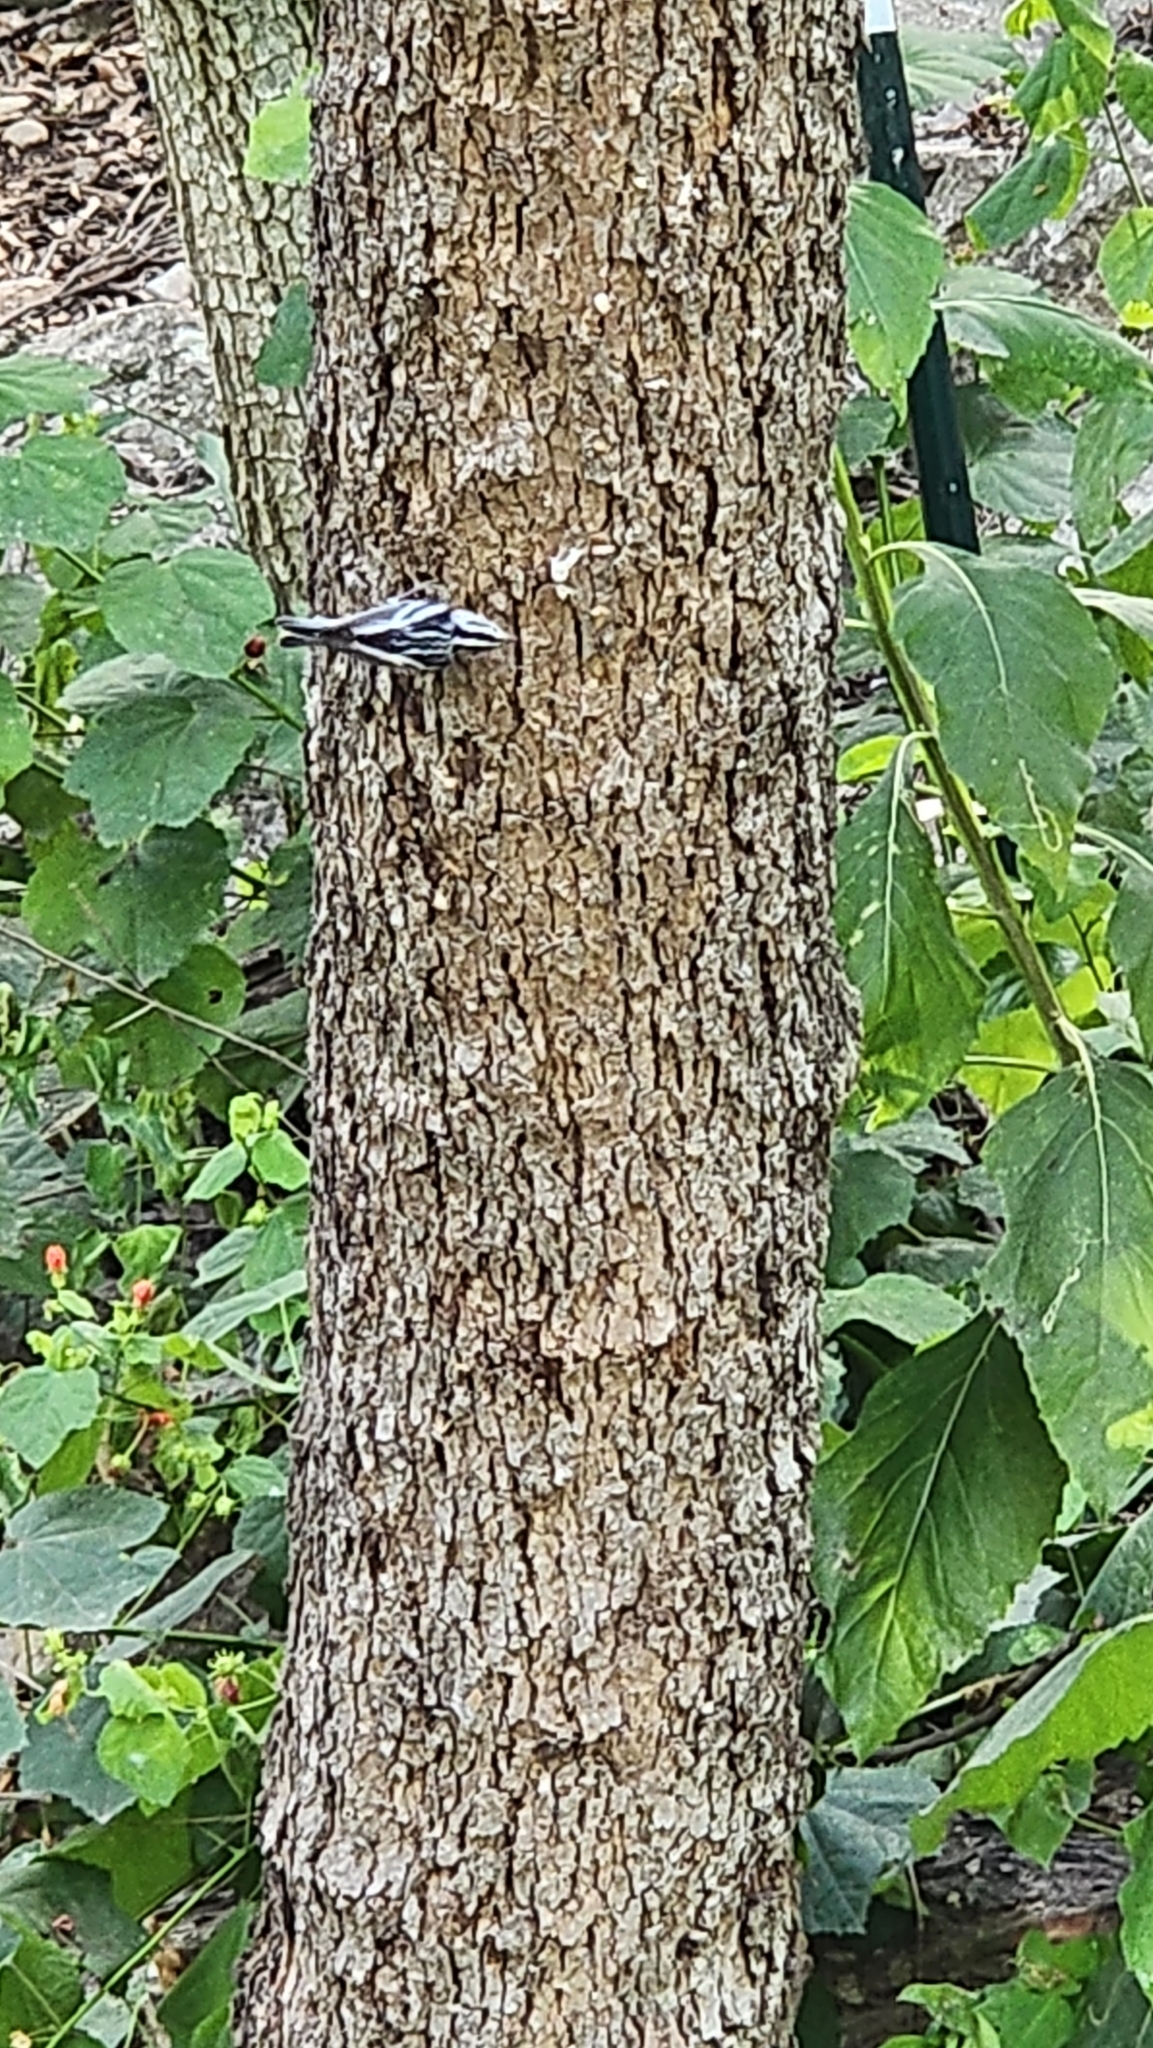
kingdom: Animalia
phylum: Chordata
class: Aves
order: Passeriformes
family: Parulidae
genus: Mniotilta
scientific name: Mniotilta varia
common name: Black-and-white warbler
